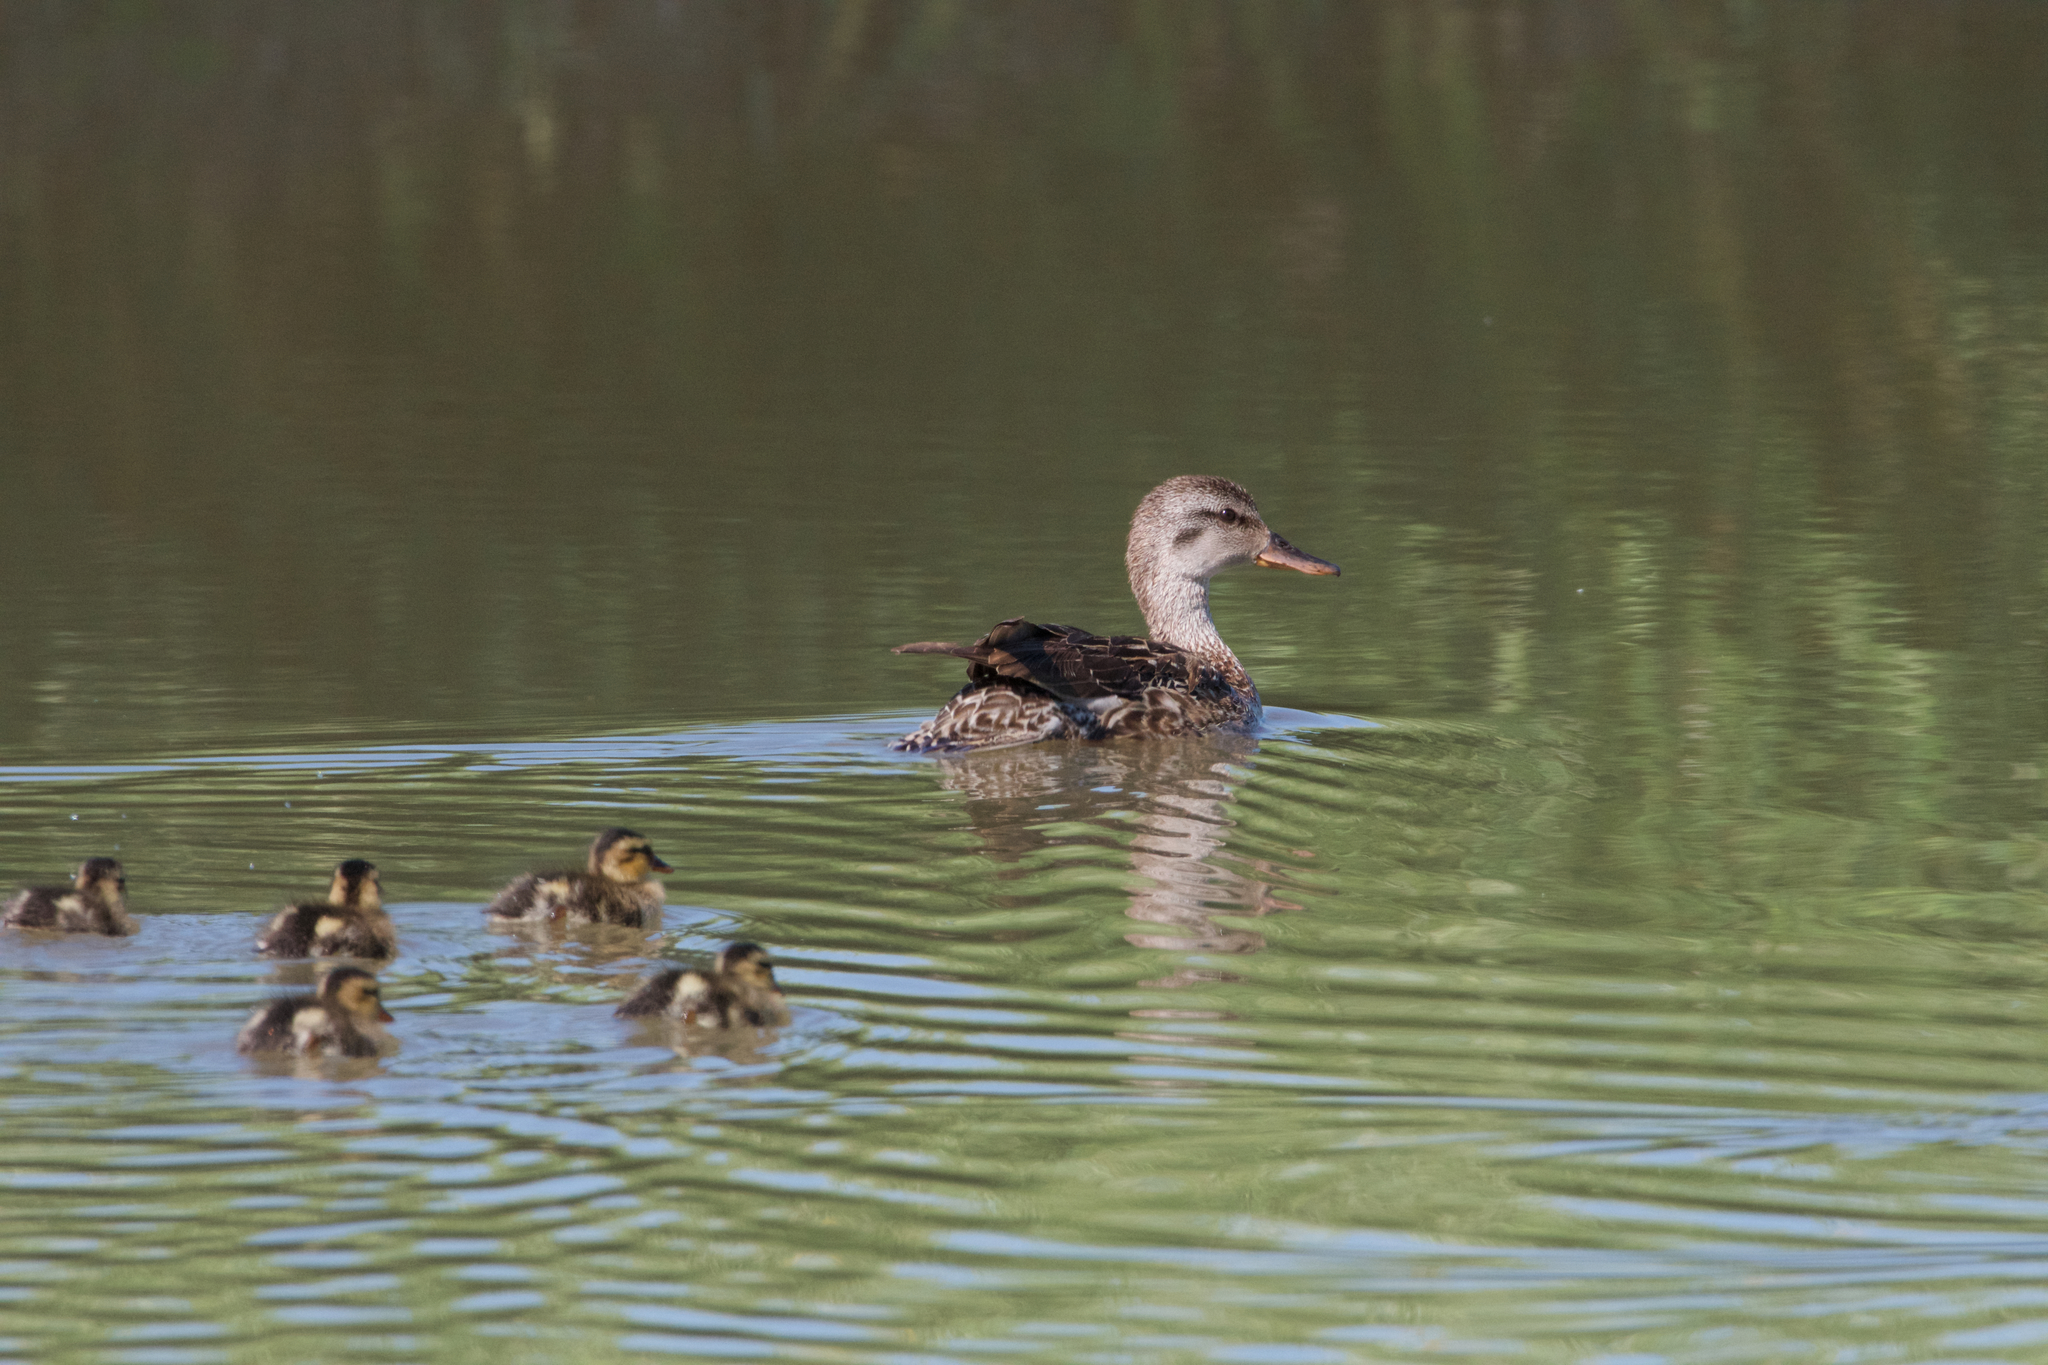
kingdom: Animalia
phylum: Chordata
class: Aves
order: Anseriformes
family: Anatidae
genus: Mareca
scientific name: Mareca strepera
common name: Gadwall
